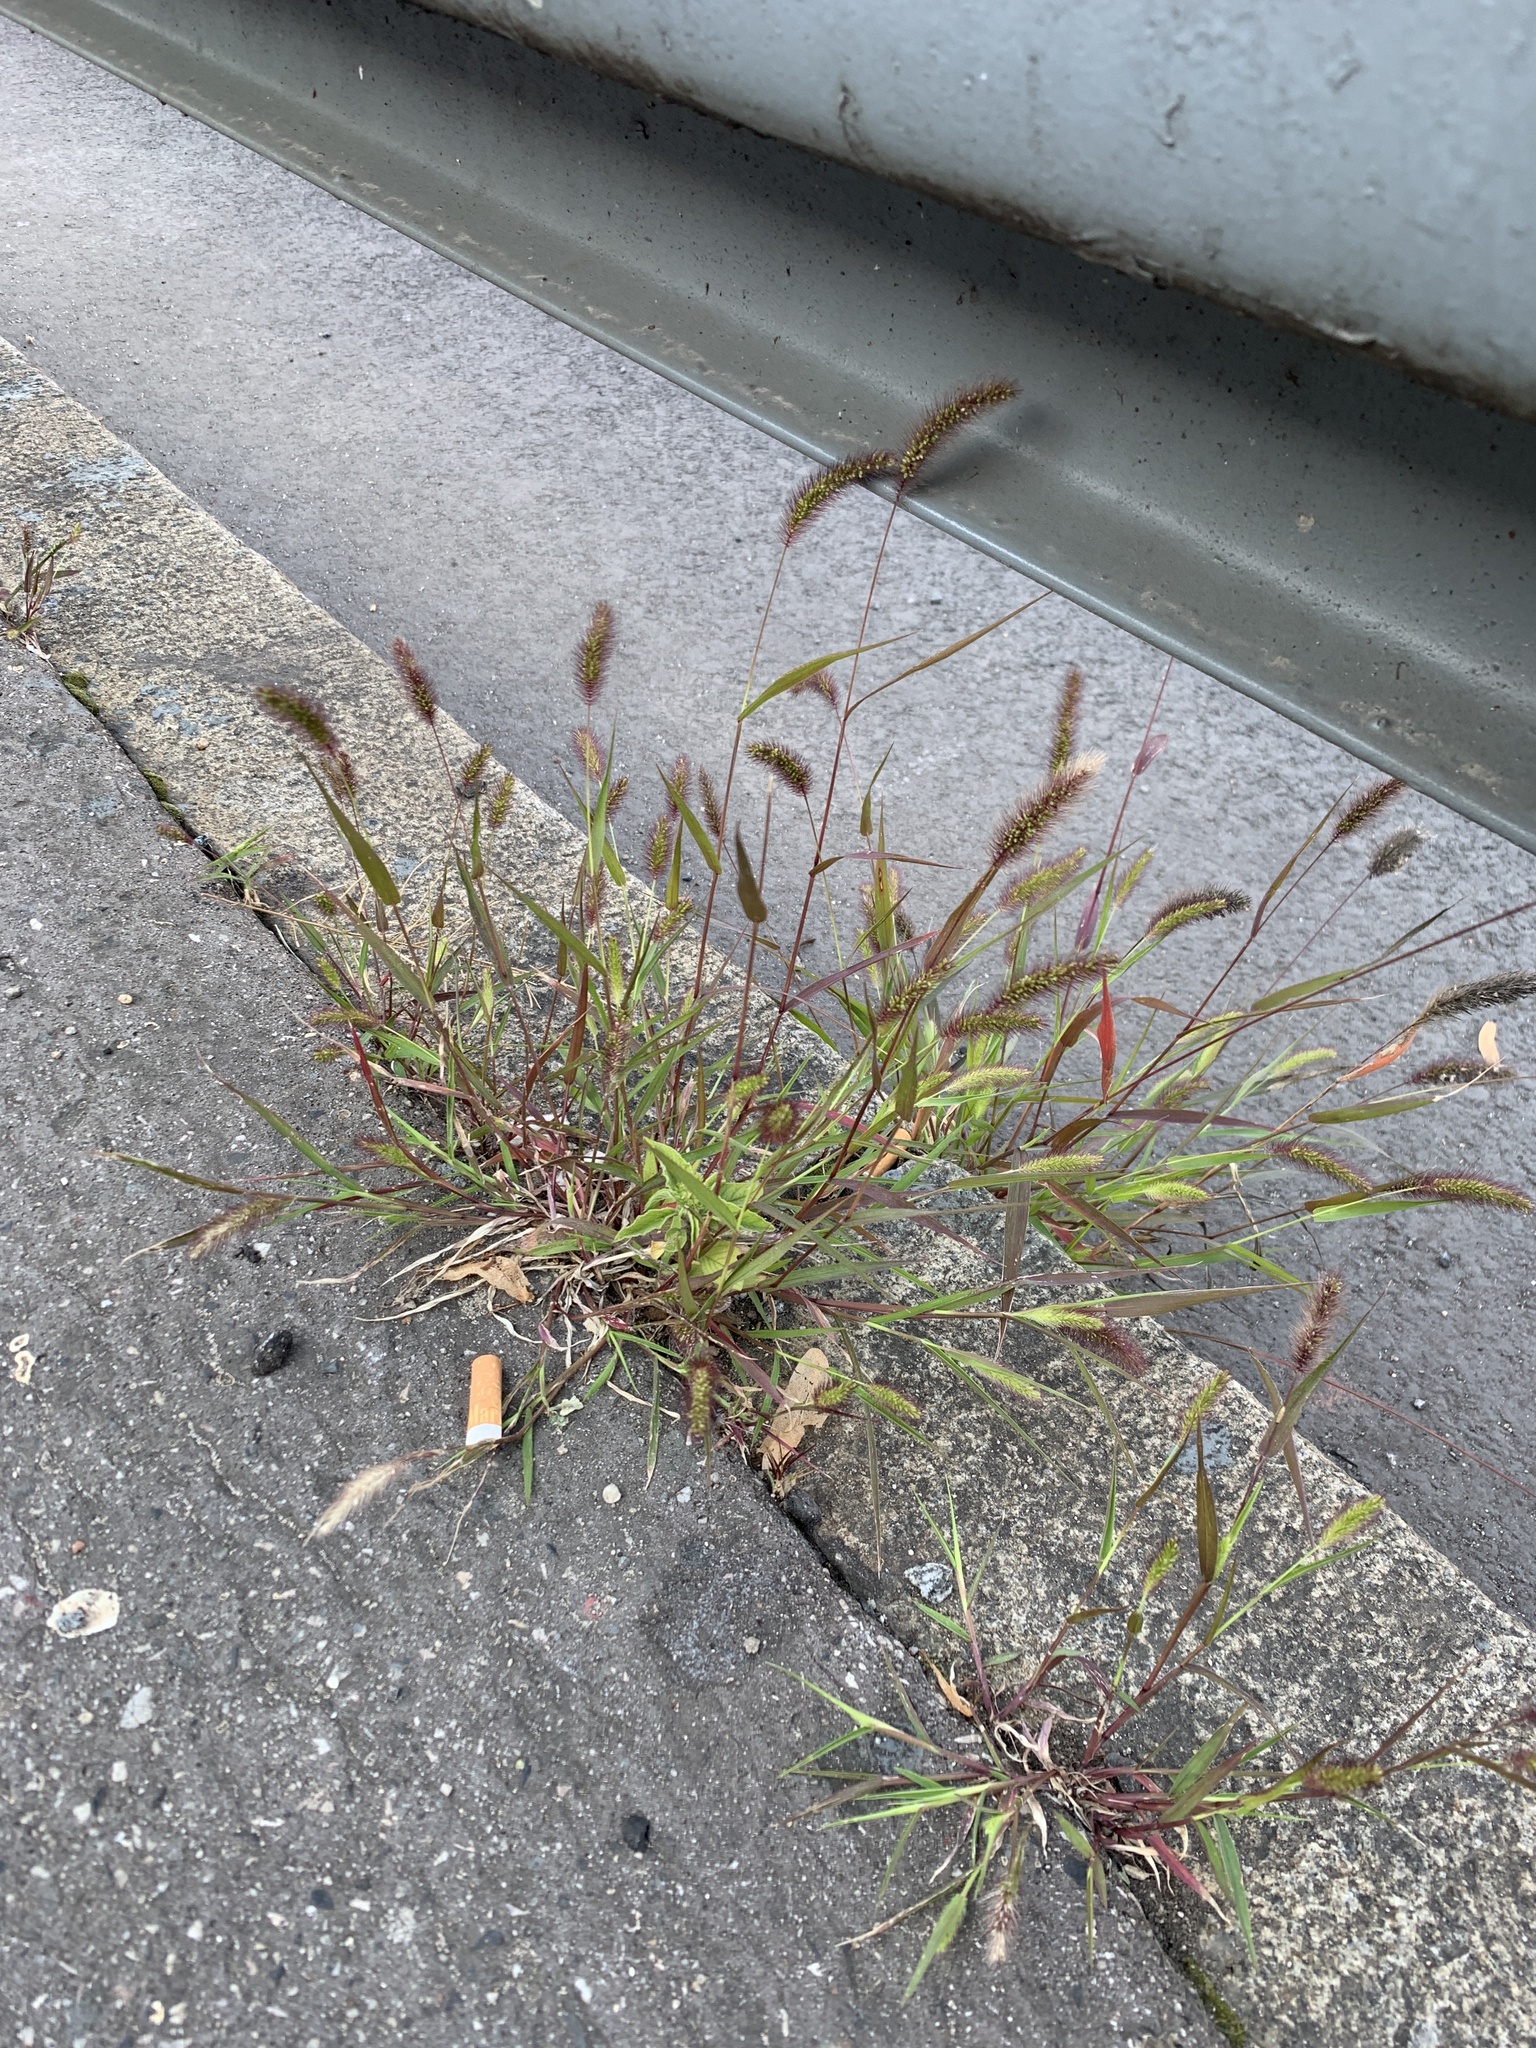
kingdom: Plantae
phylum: Tracheophyta
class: Liliopsida
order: Poales
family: Poaceae
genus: Setaria
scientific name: Setaria viridis
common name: Green bristlegrass
